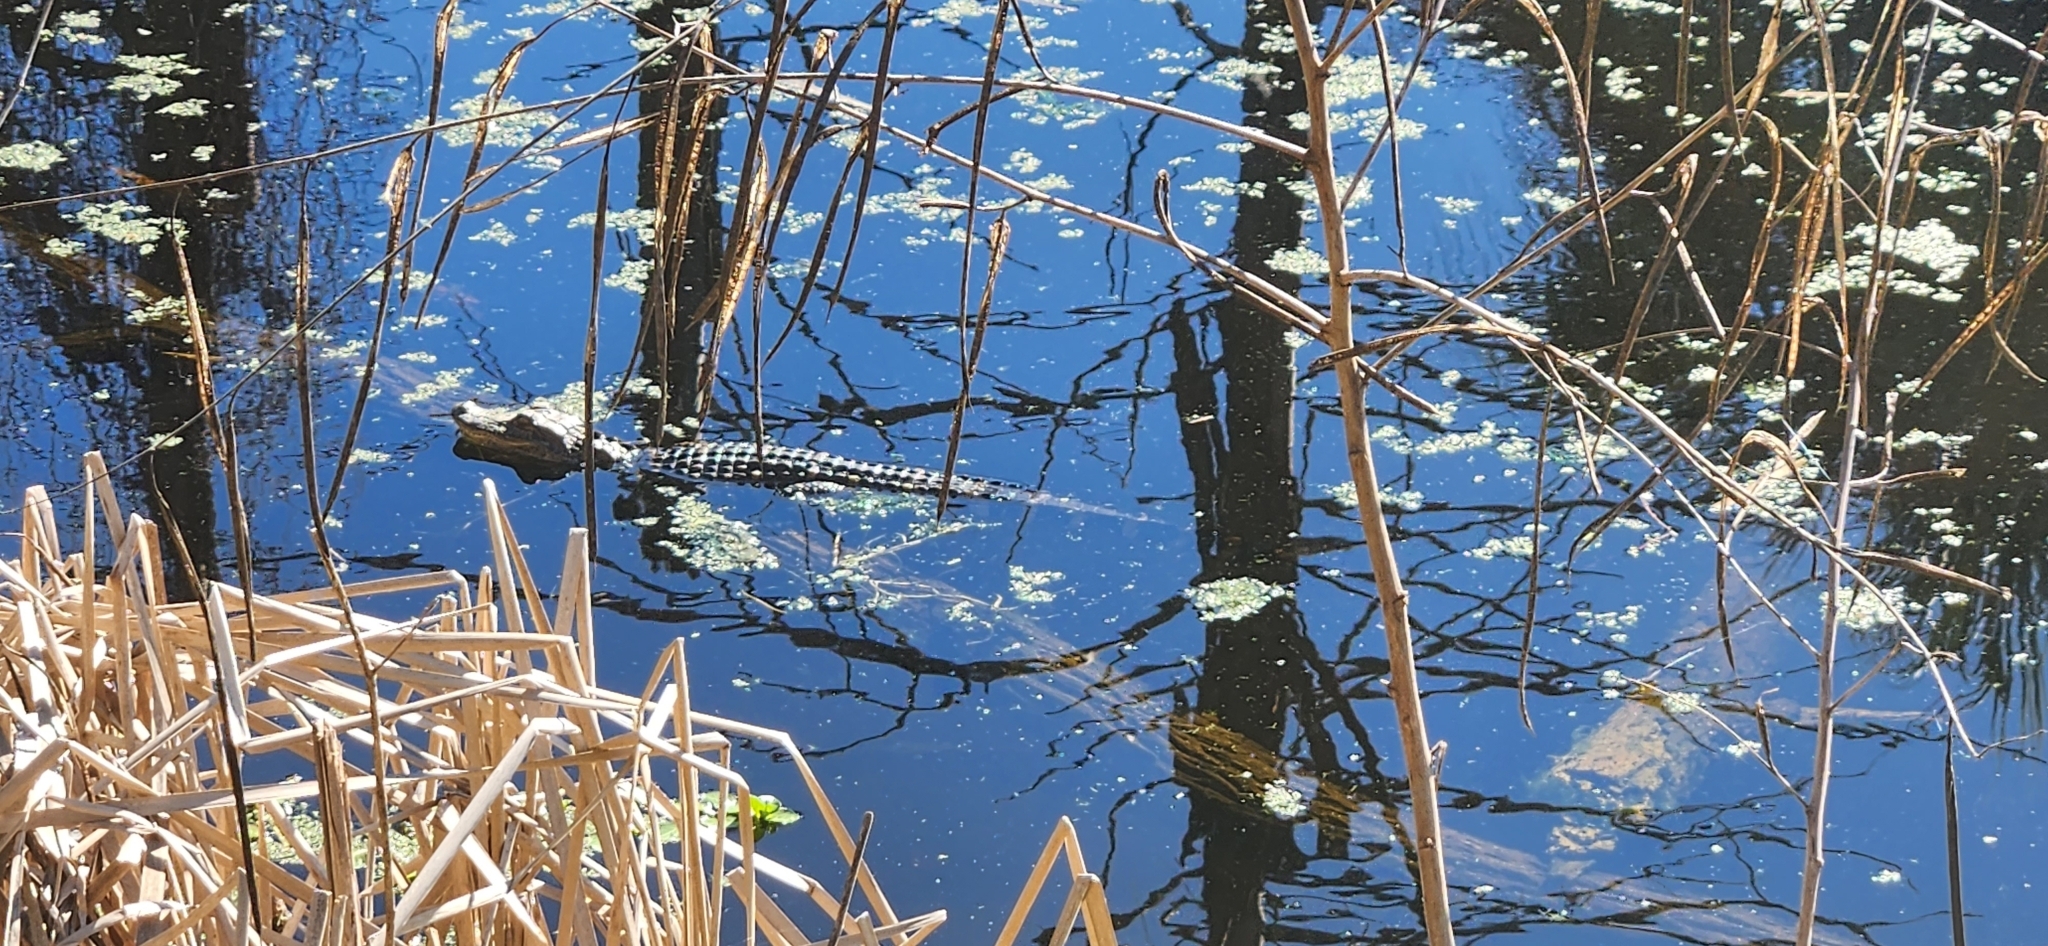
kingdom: Animalia
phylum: Chordata
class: Crocodylia
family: Alligatoridae
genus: Alligator
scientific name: Alligator mississippiensis
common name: American alligator
